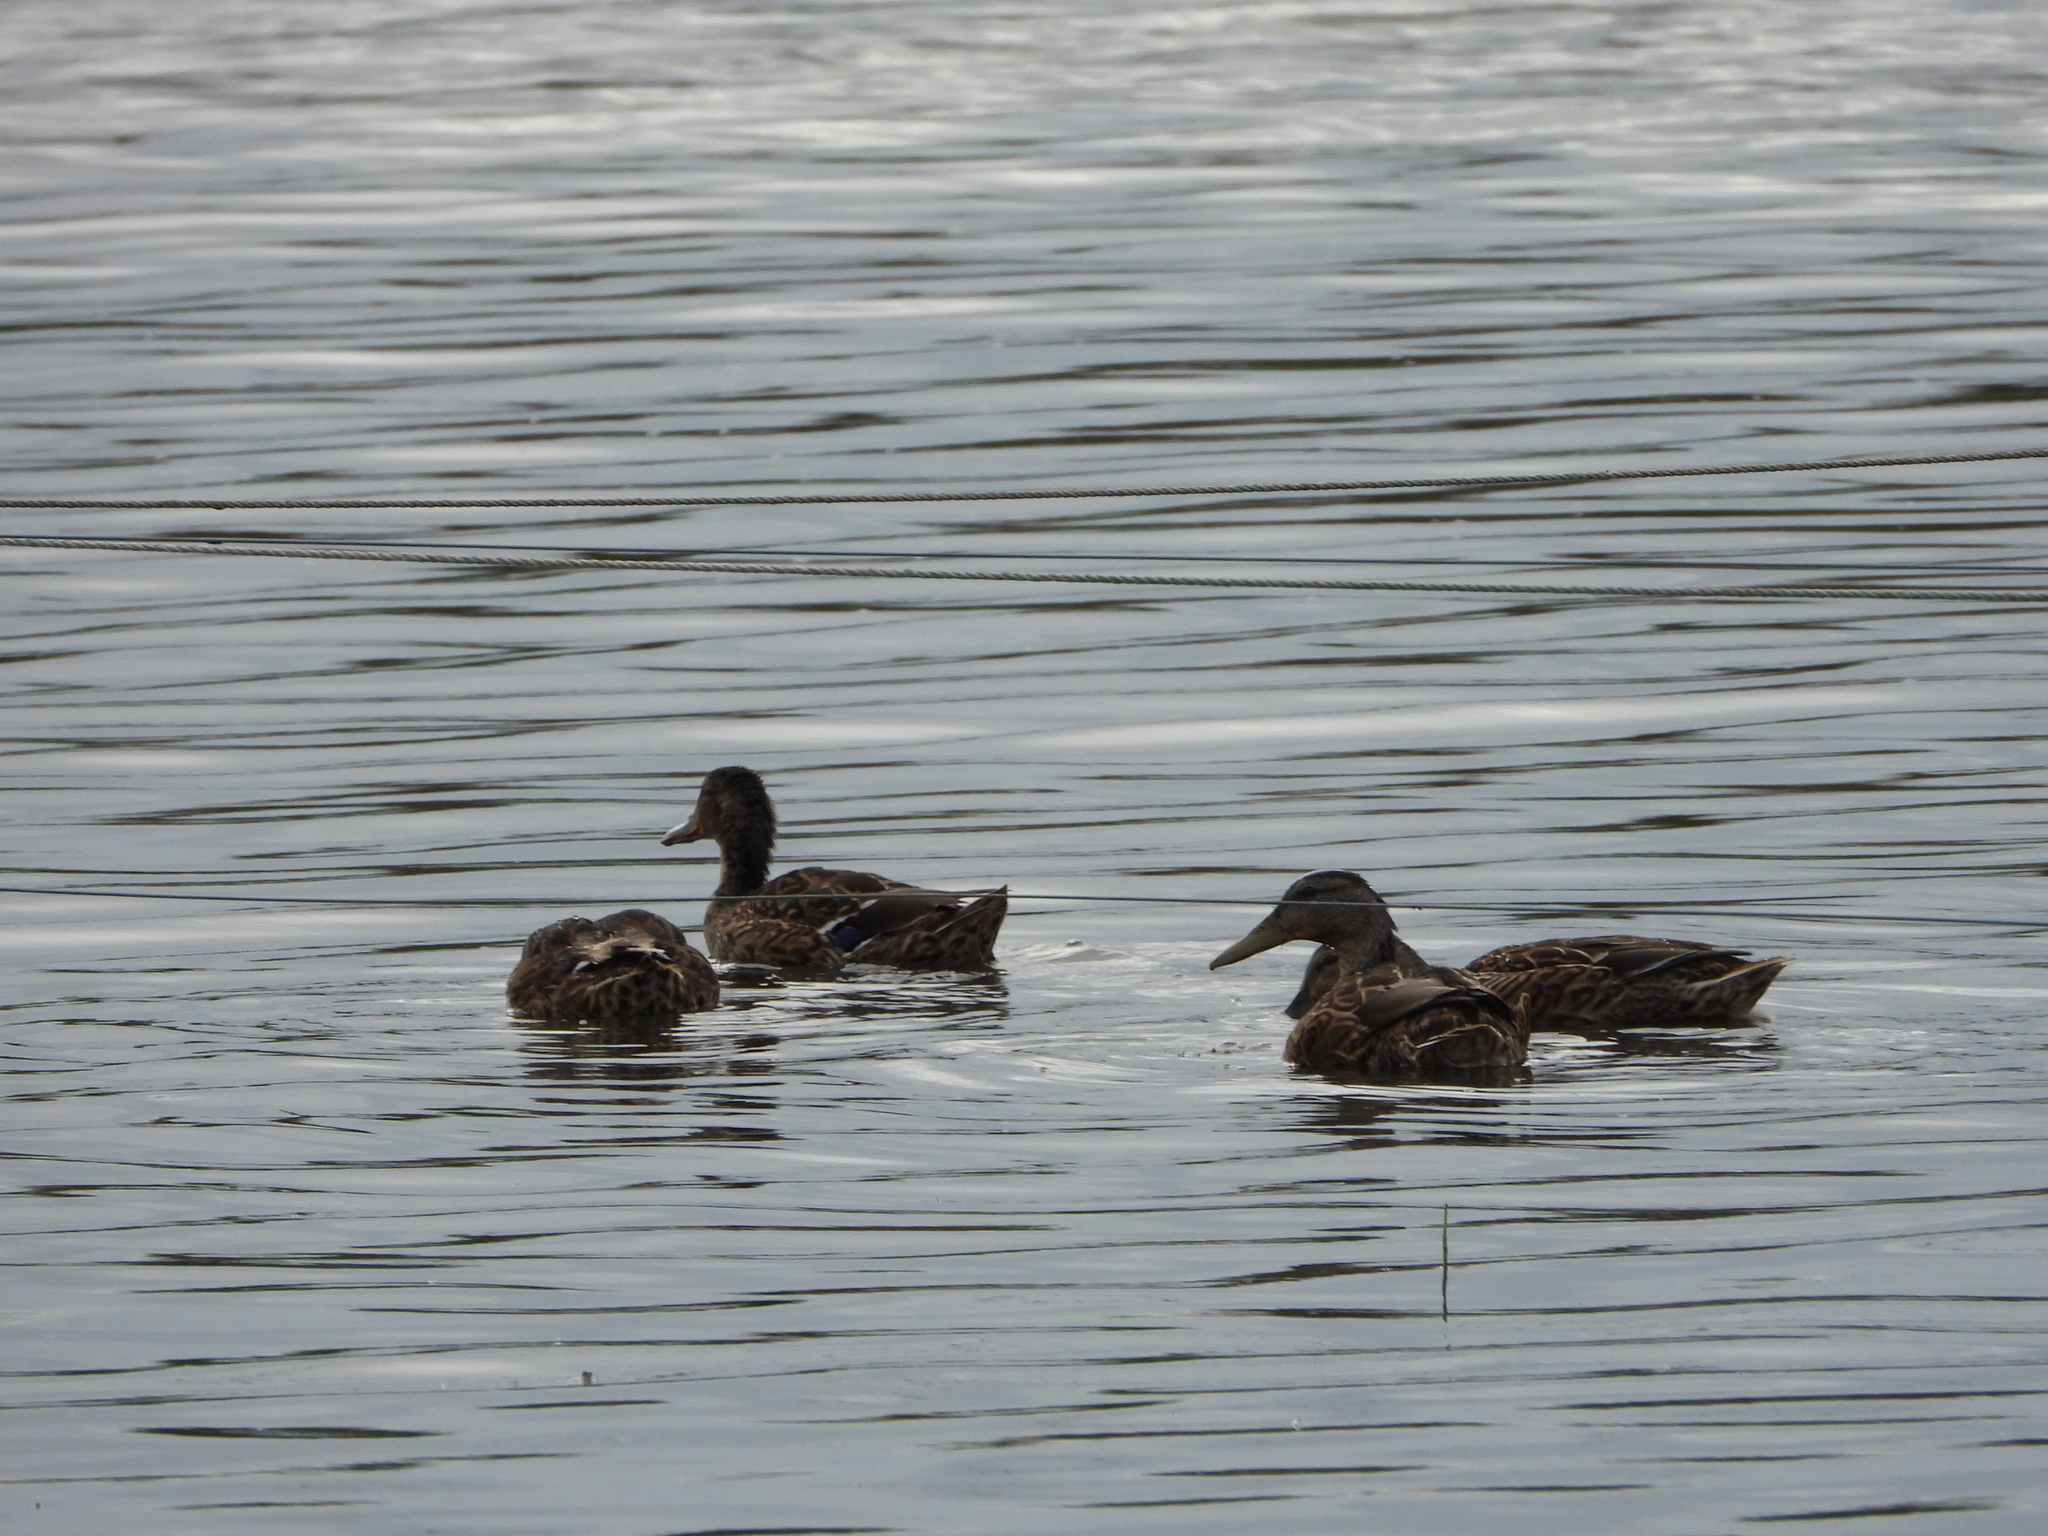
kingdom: Animalia
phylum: Chordata
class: Aves
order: Anseriformes
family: Anatidae
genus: Anas
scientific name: Anas platyrhynchos
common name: Mallard
